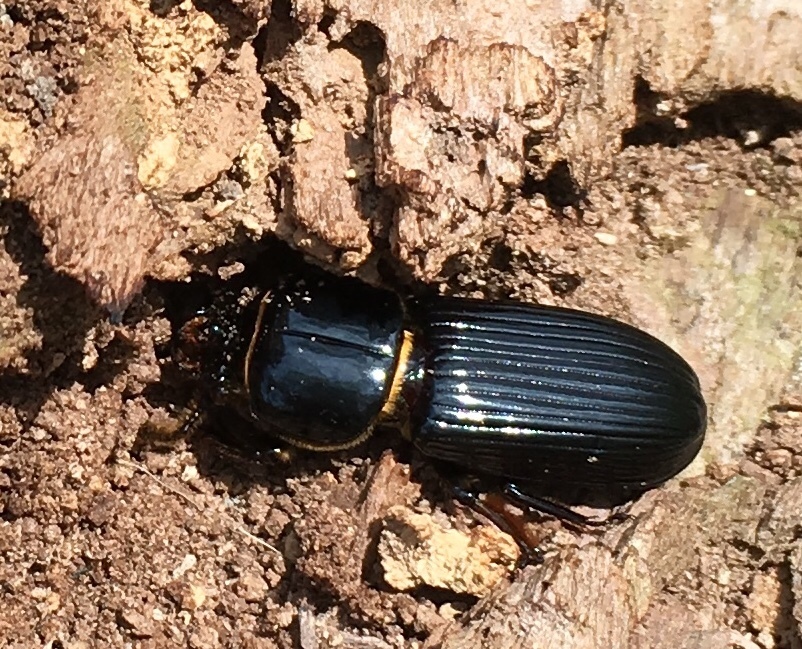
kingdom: Animalia
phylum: Arthropoda
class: Insecta
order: Coleoptera
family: Passalidae
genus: Odontotaenius
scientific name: Odontotaenius disjunctus
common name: Patent leather beetle
